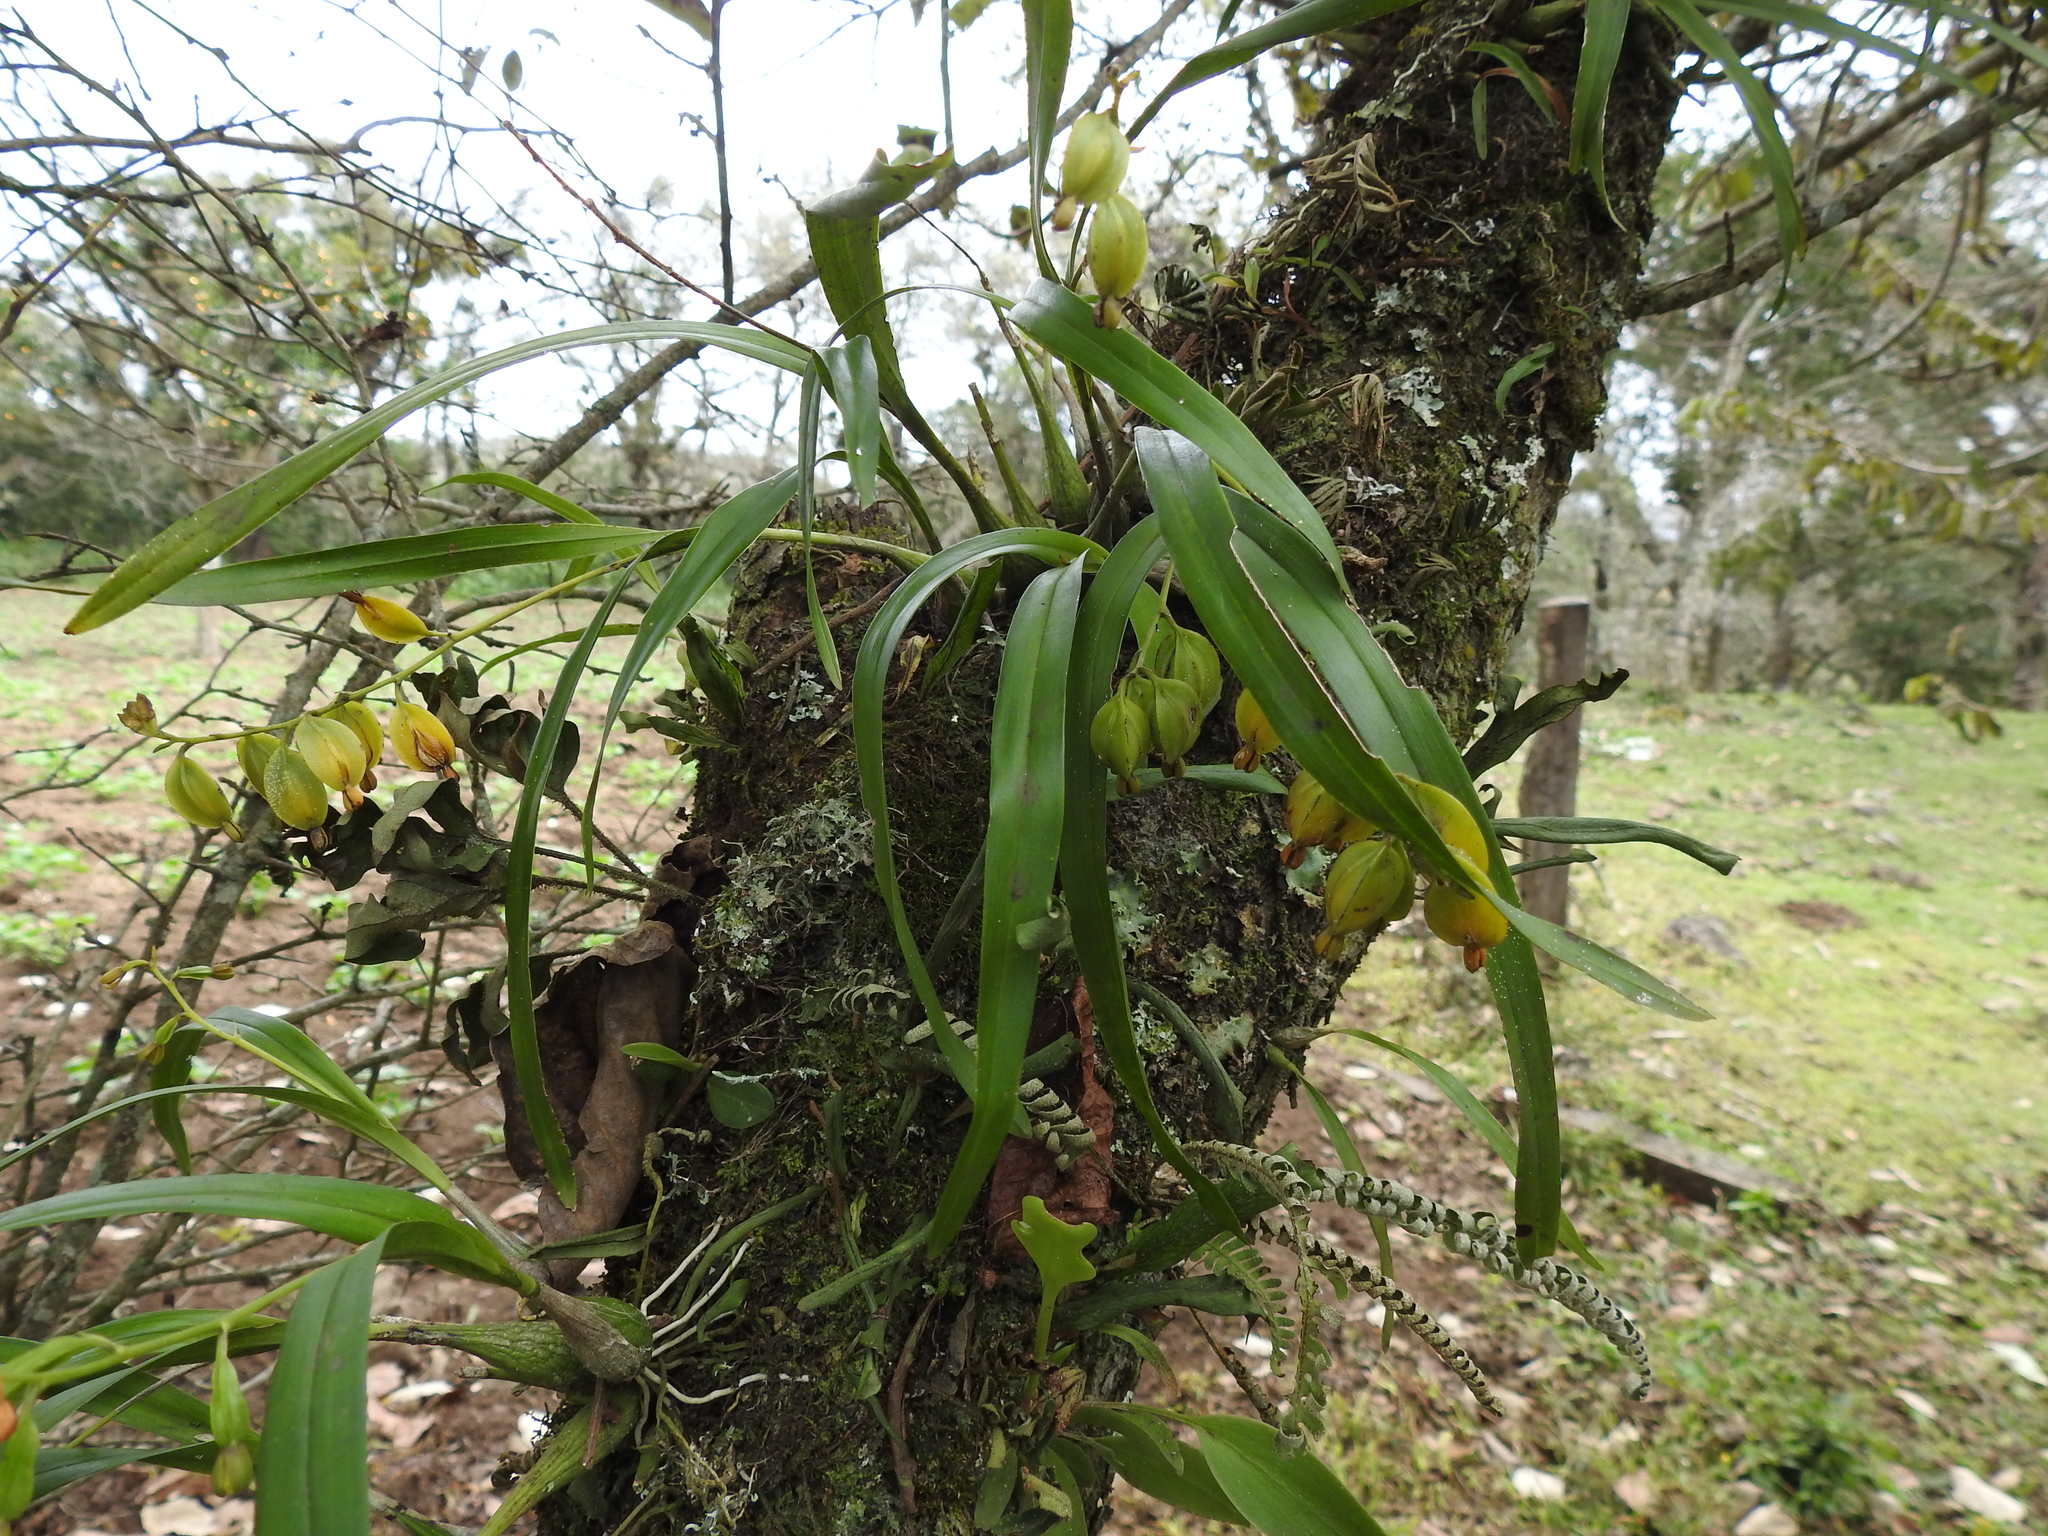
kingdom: Plantae
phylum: Tracheophyta
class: Liliopsida
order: Asparagales
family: Orchidaceae
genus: Prosthechea
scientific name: Prosthechea ochracea
